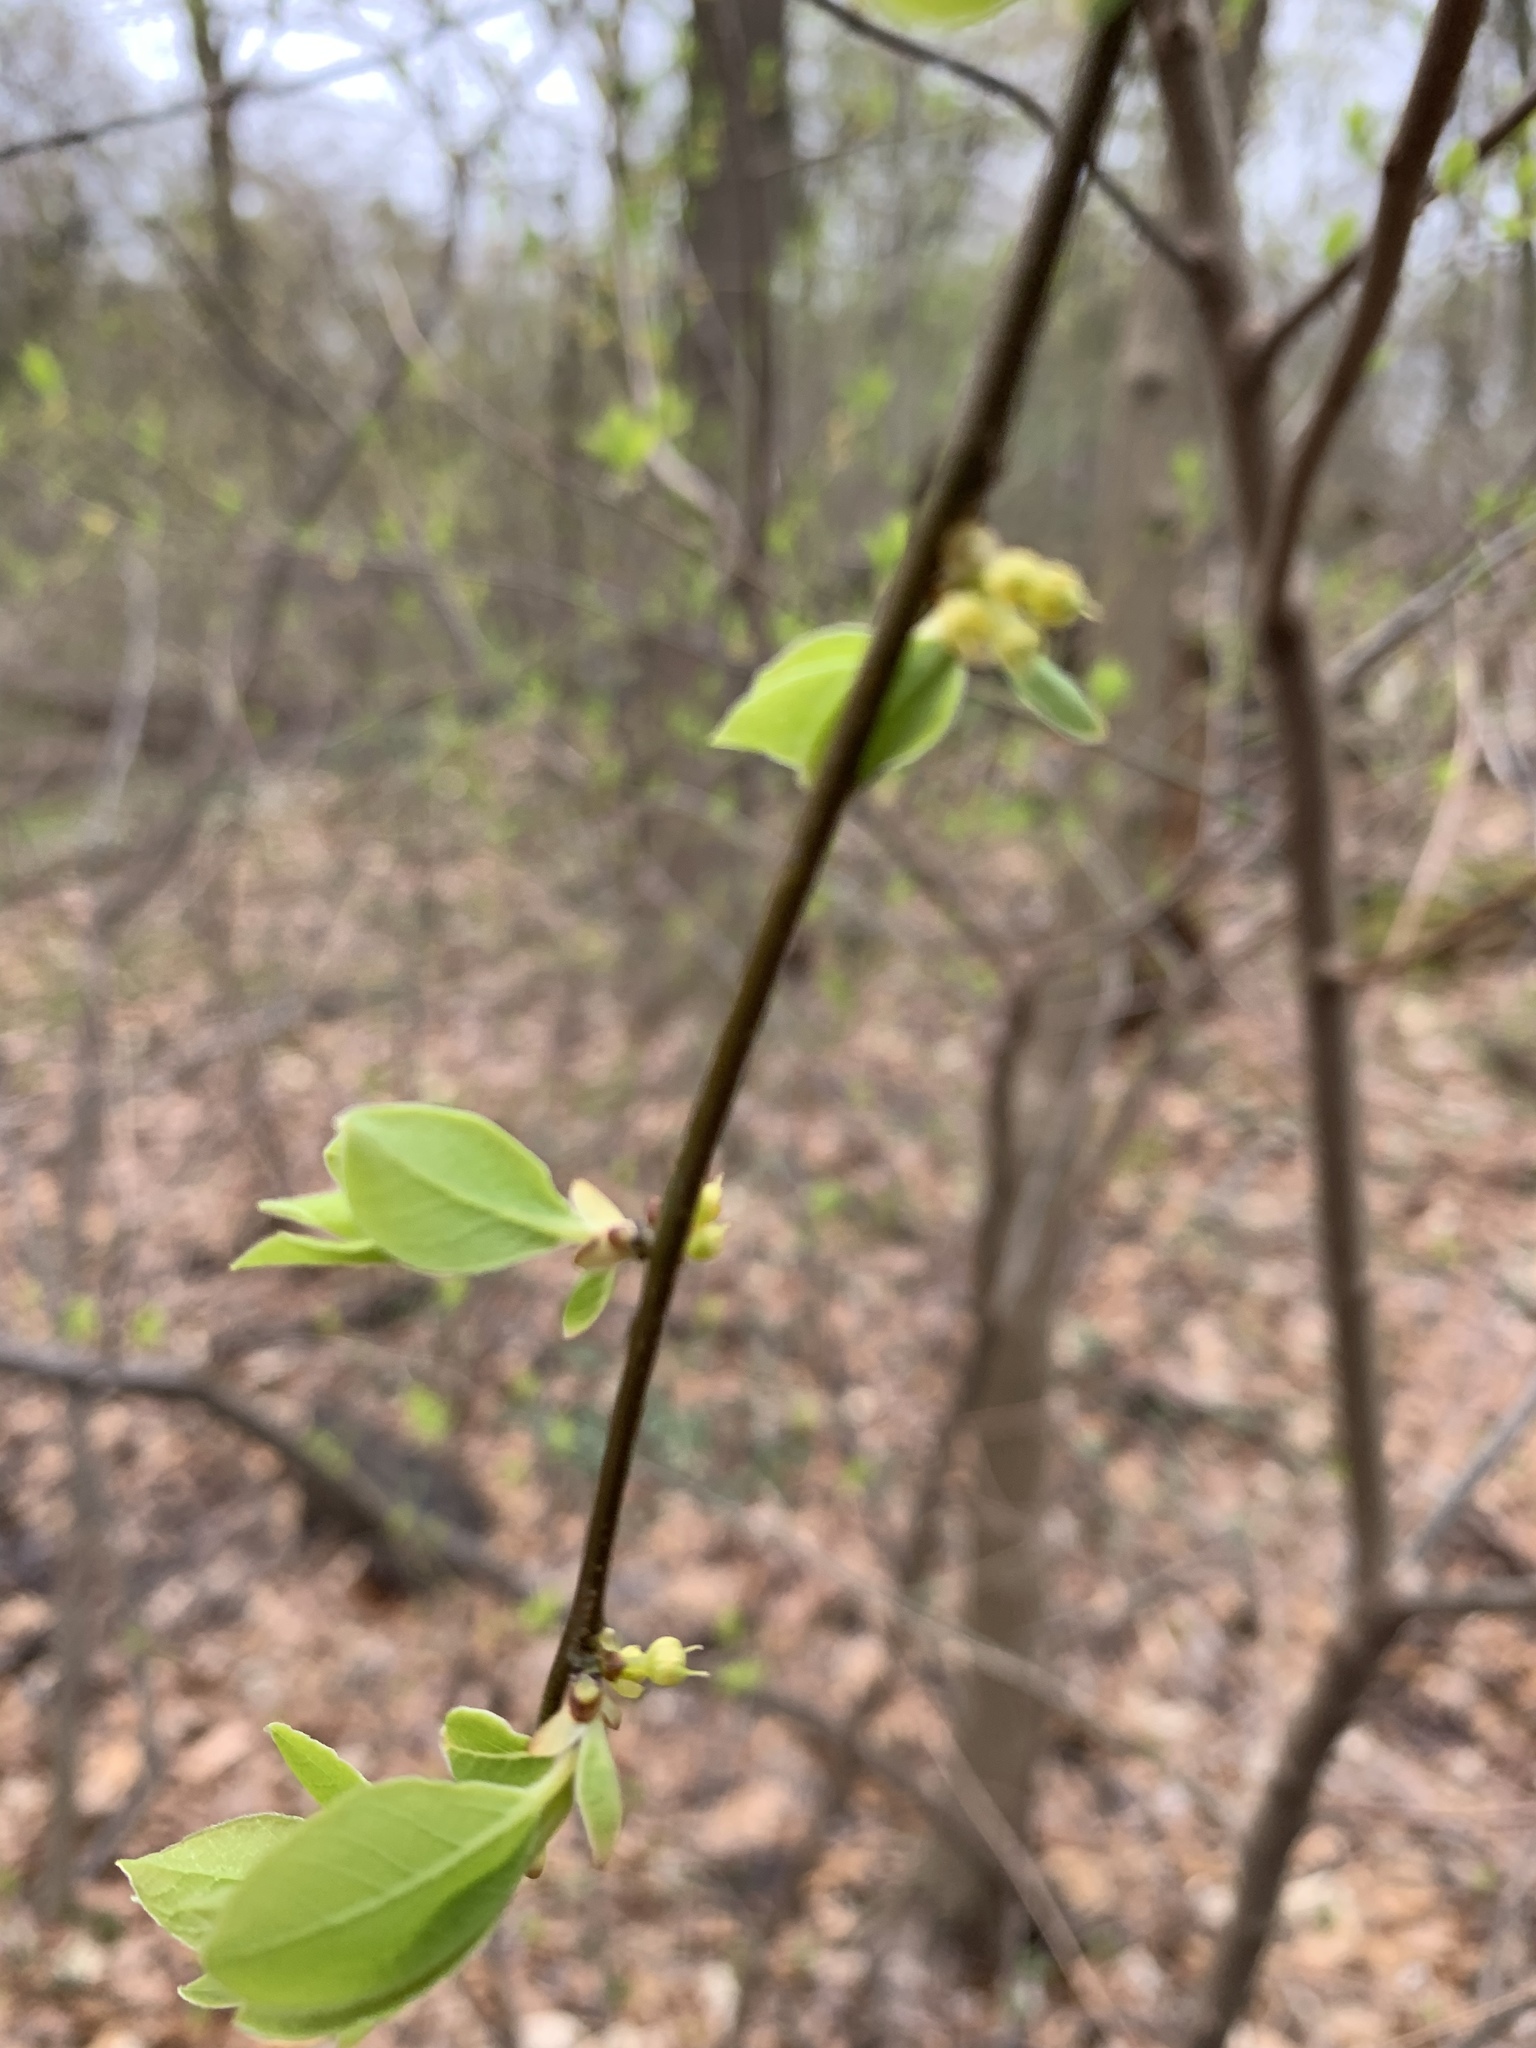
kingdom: Plantae
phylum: Tracheophyta
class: Magnoliopsida
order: Laurales
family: Lauraceae
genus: Lindera
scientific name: Lindera benzoin
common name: Spicebush
